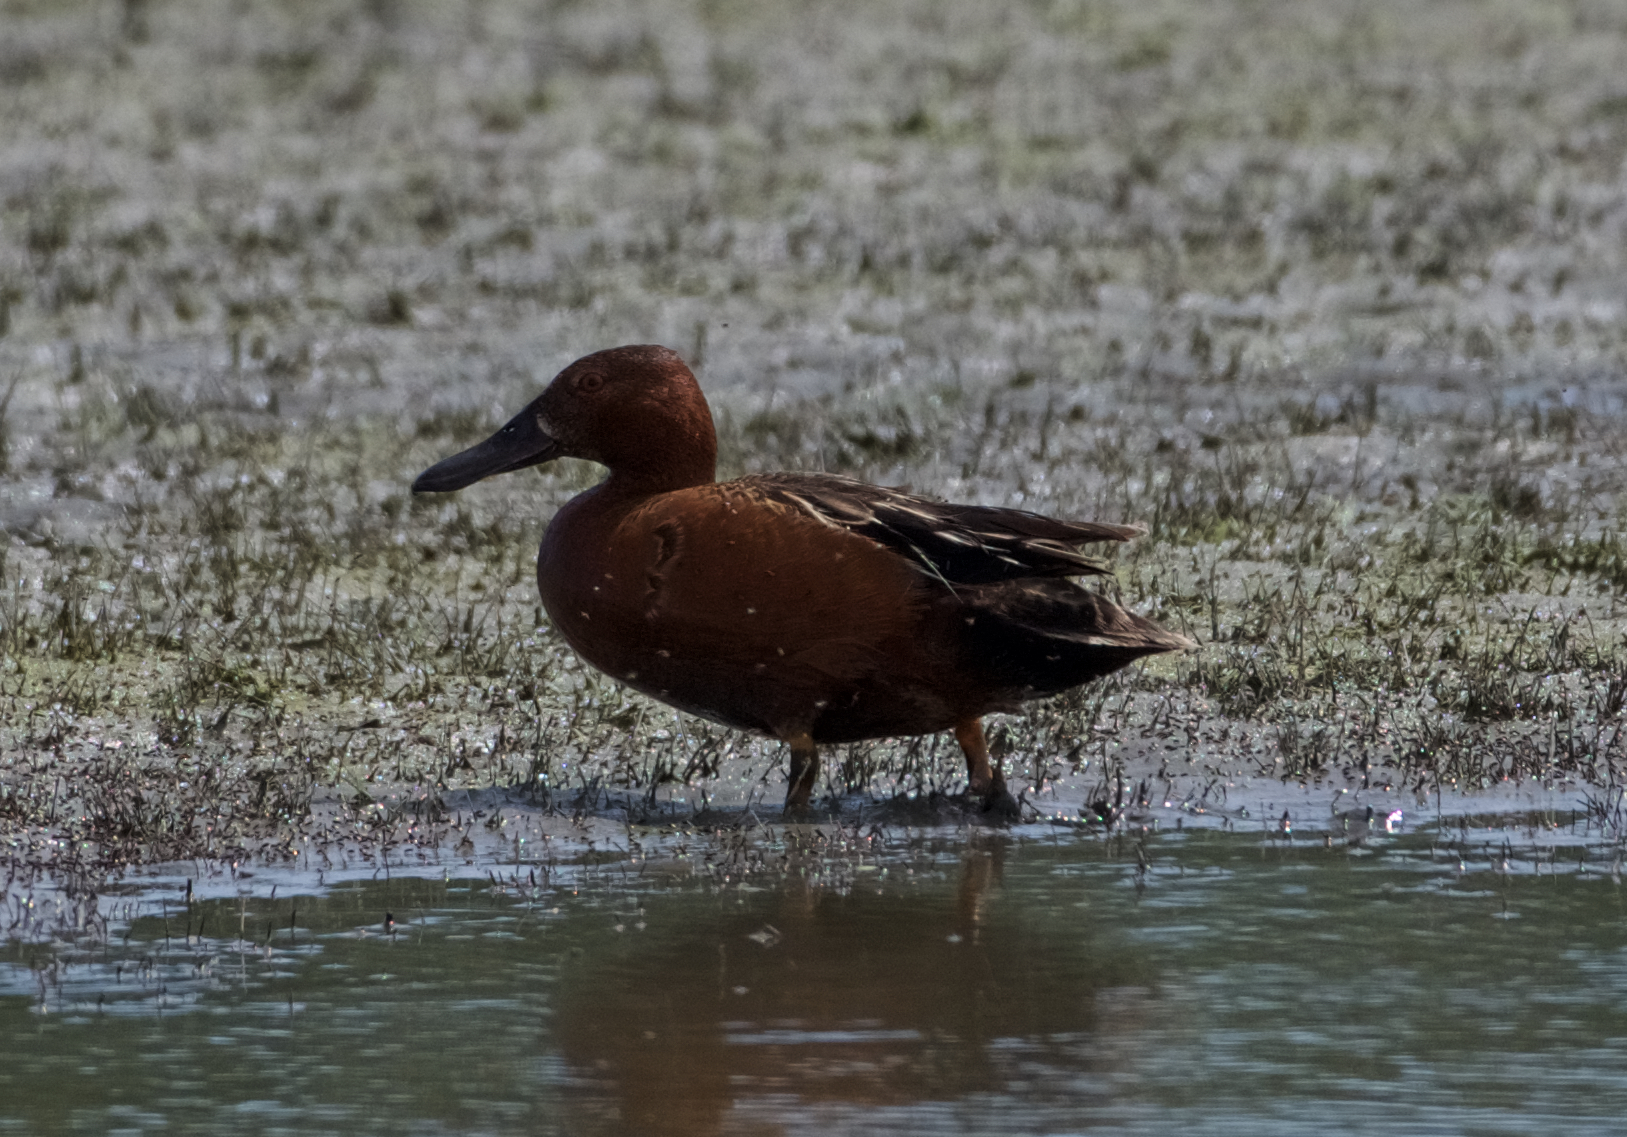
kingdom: Animalia
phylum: Chordata
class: Aves
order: Anseriformes
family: Anatidae
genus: Spatula
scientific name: Spatula cyanoptera
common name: Cinnamon teal
